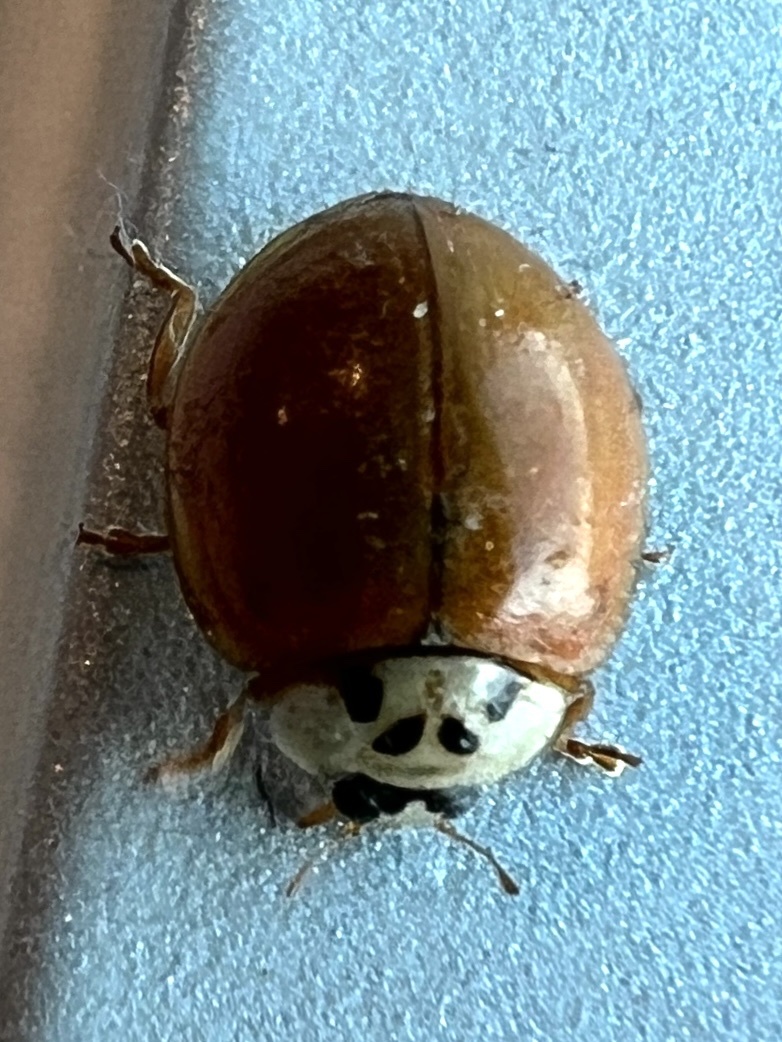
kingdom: Animalia
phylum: Arthropoda
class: Insecta
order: Coleoptera
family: Coccinellidae
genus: Harmonia
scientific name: Harmonia axyridis
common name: Harlequin ladybird
